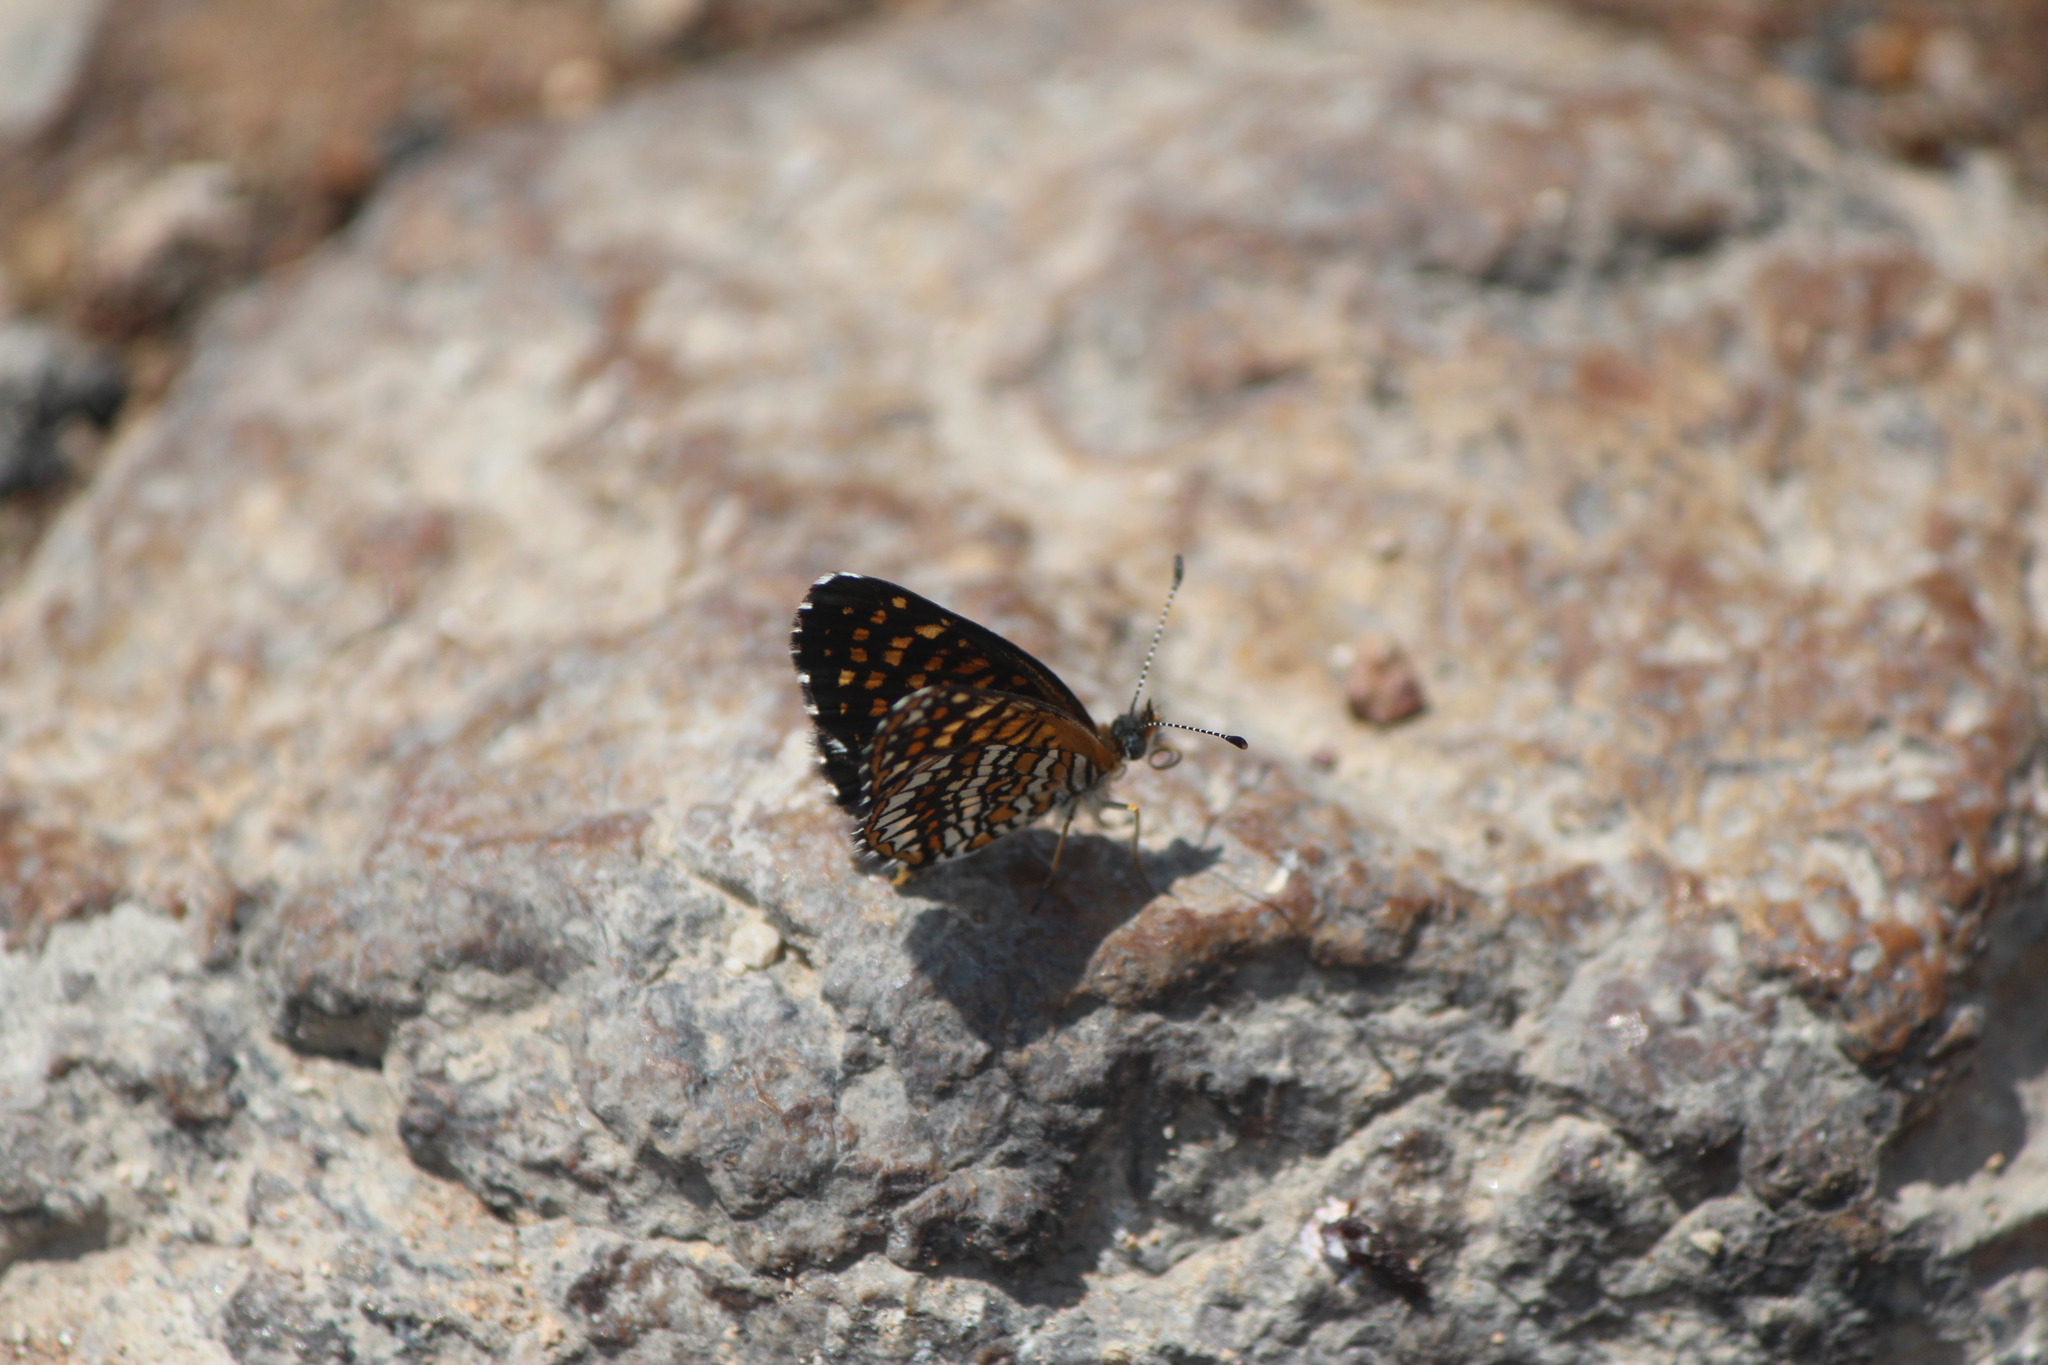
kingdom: Animalia
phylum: Arthropoda
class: Insecta
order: Lepidoptera
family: Nymphalidae
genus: Texola
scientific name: Texola elada
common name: Elada checkerspot
